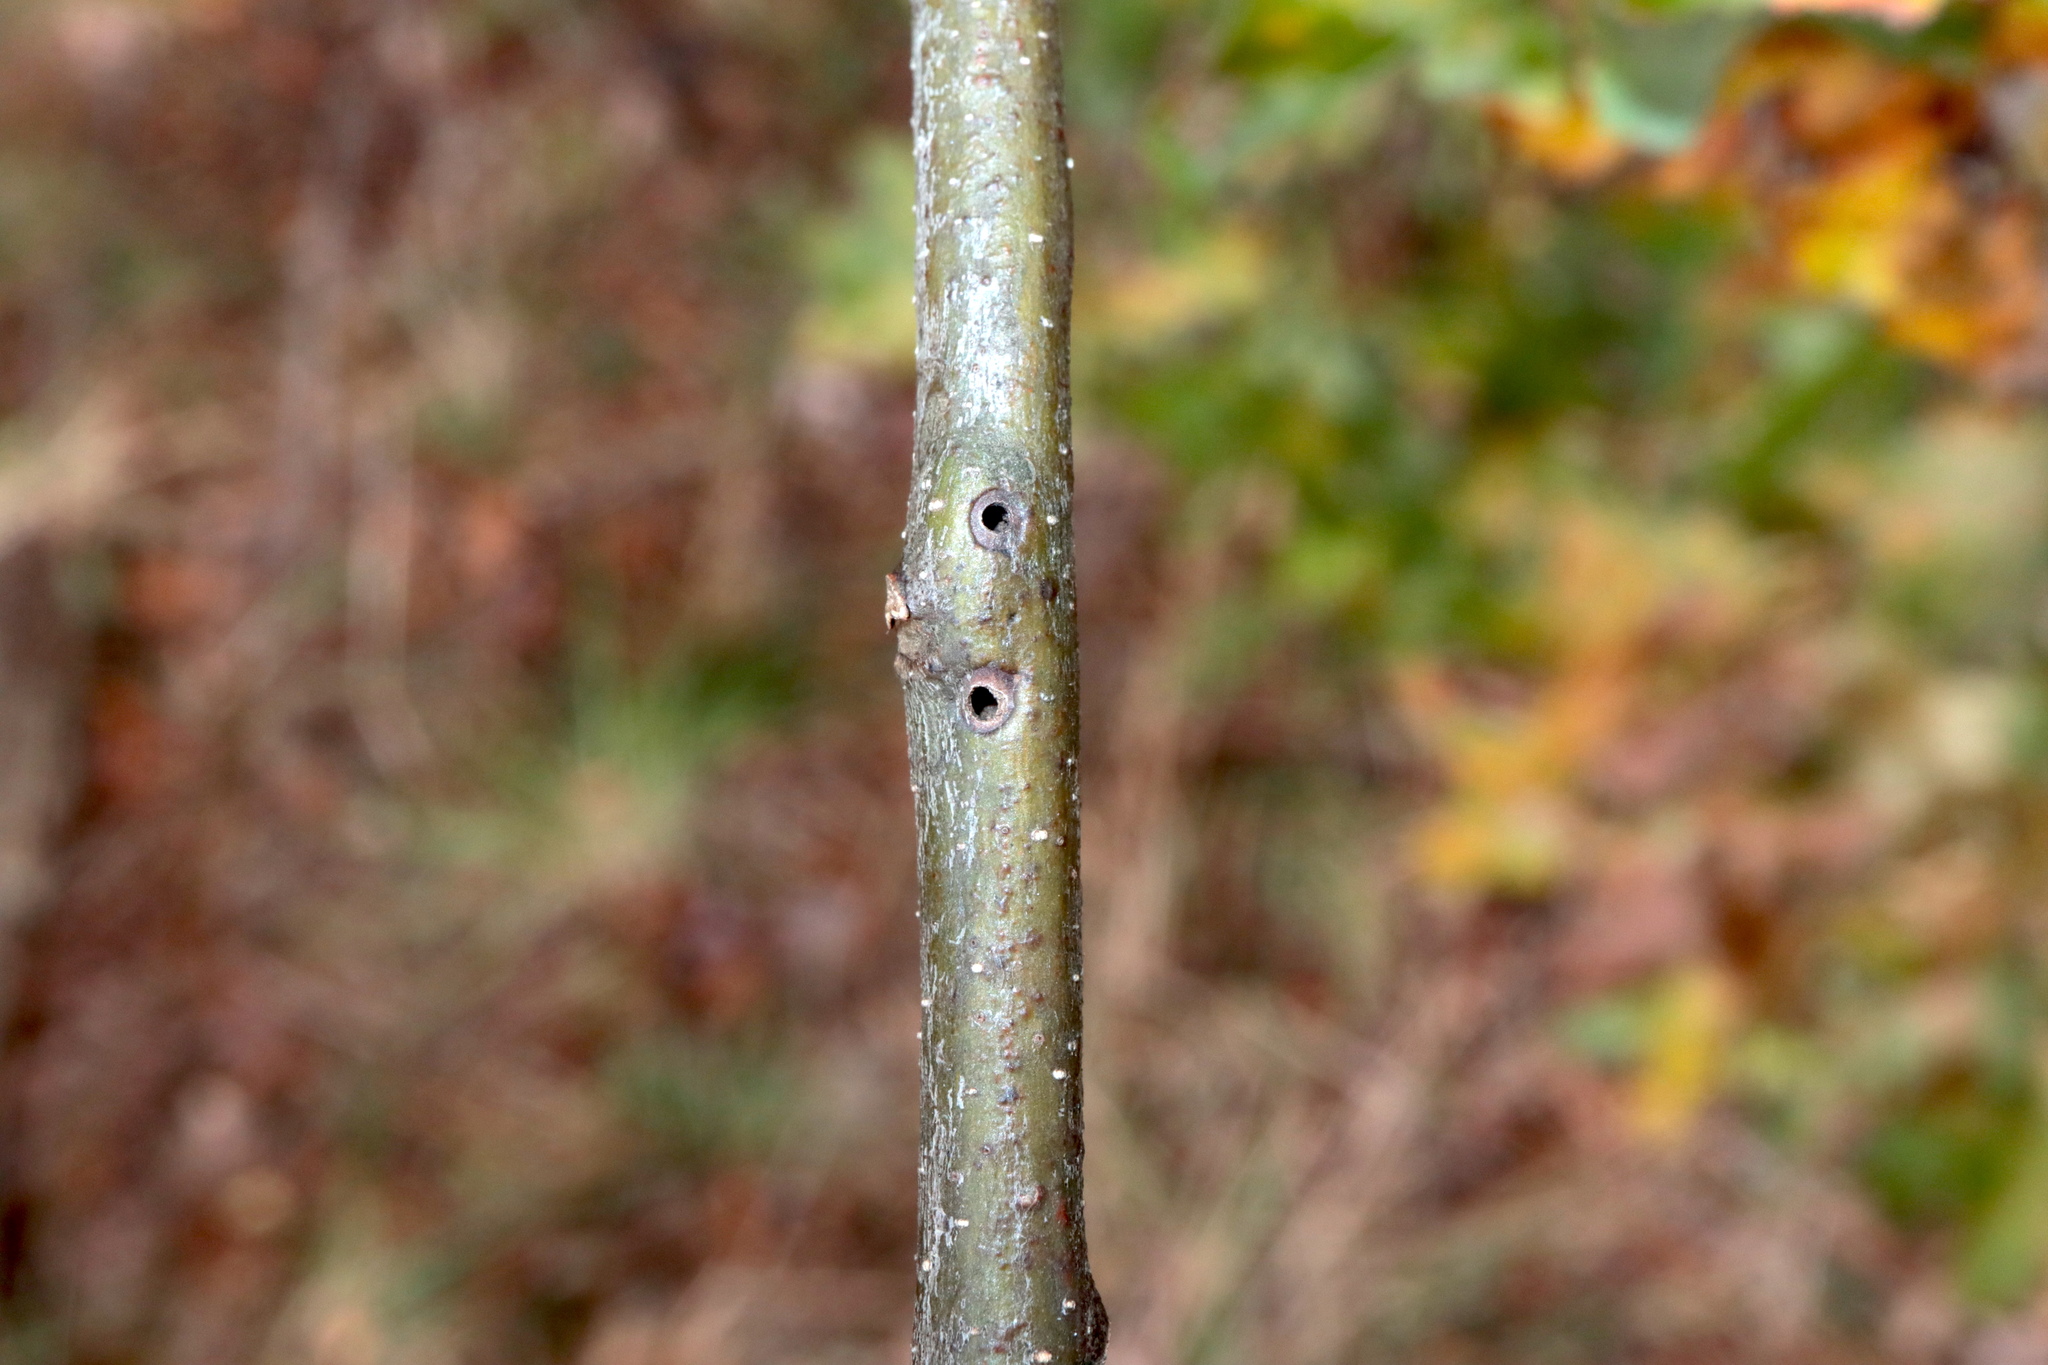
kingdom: Animalia
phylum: Arthropoda
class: Insecta
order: Hymenoptera
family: Cynipidae
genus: Callirhytis
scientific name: Callirhytis
